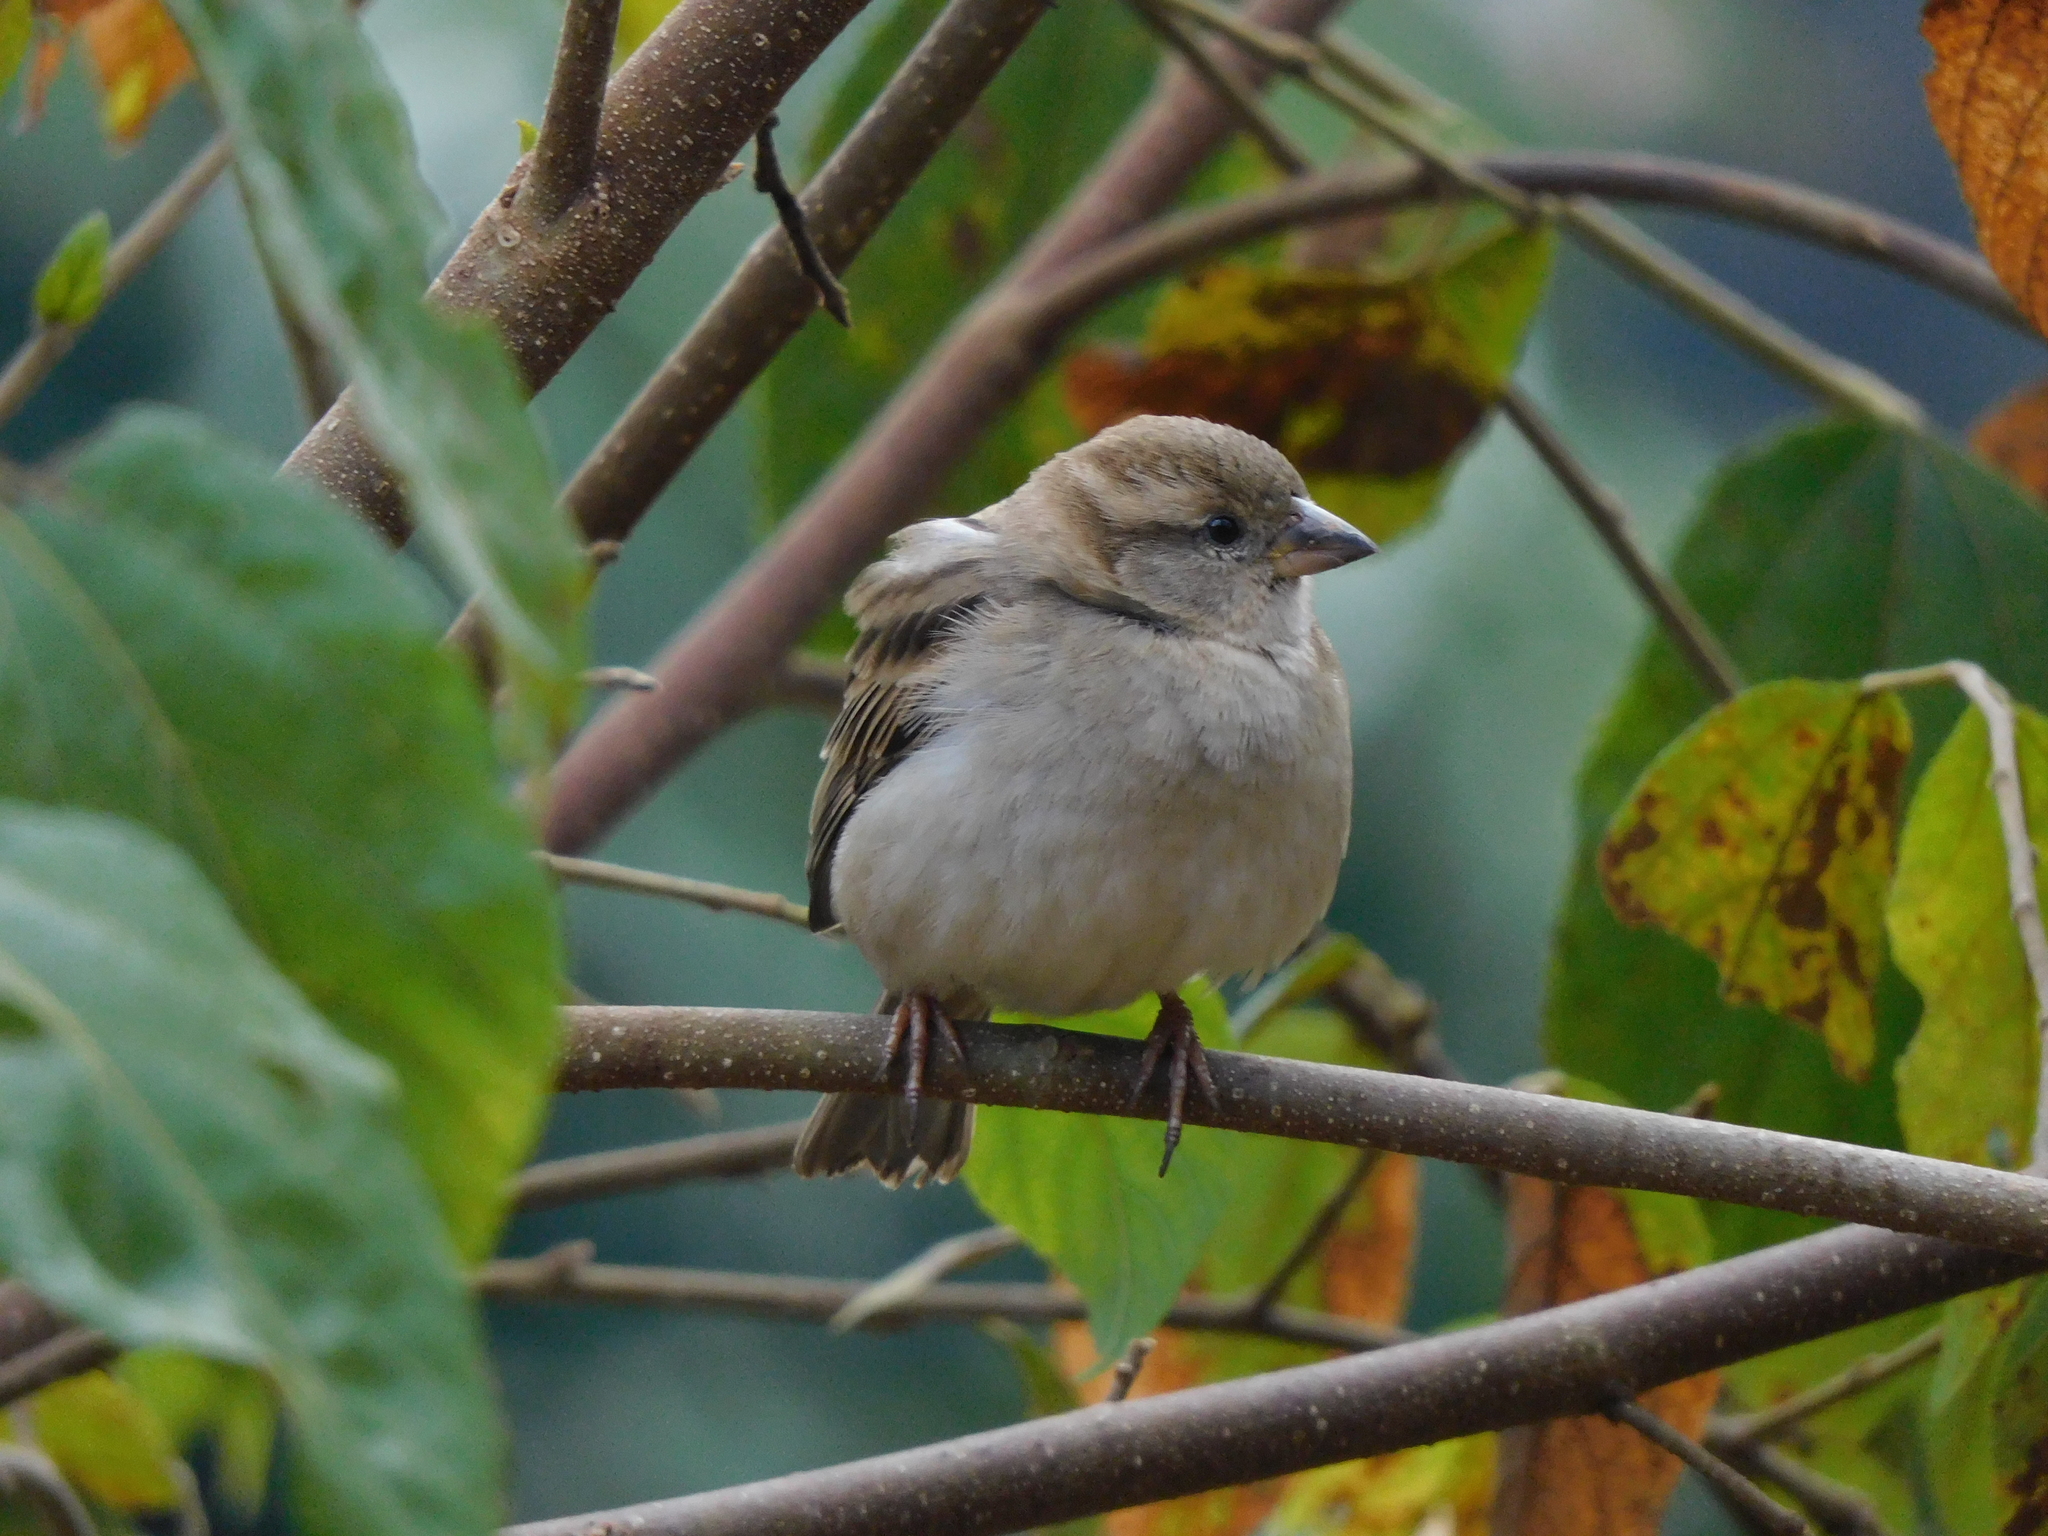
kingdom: Animalia
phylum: Chordata
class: Aves
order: Passeriformes
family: Passeridae
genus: Passer
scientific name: Passer domesticus
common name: House sparrow
